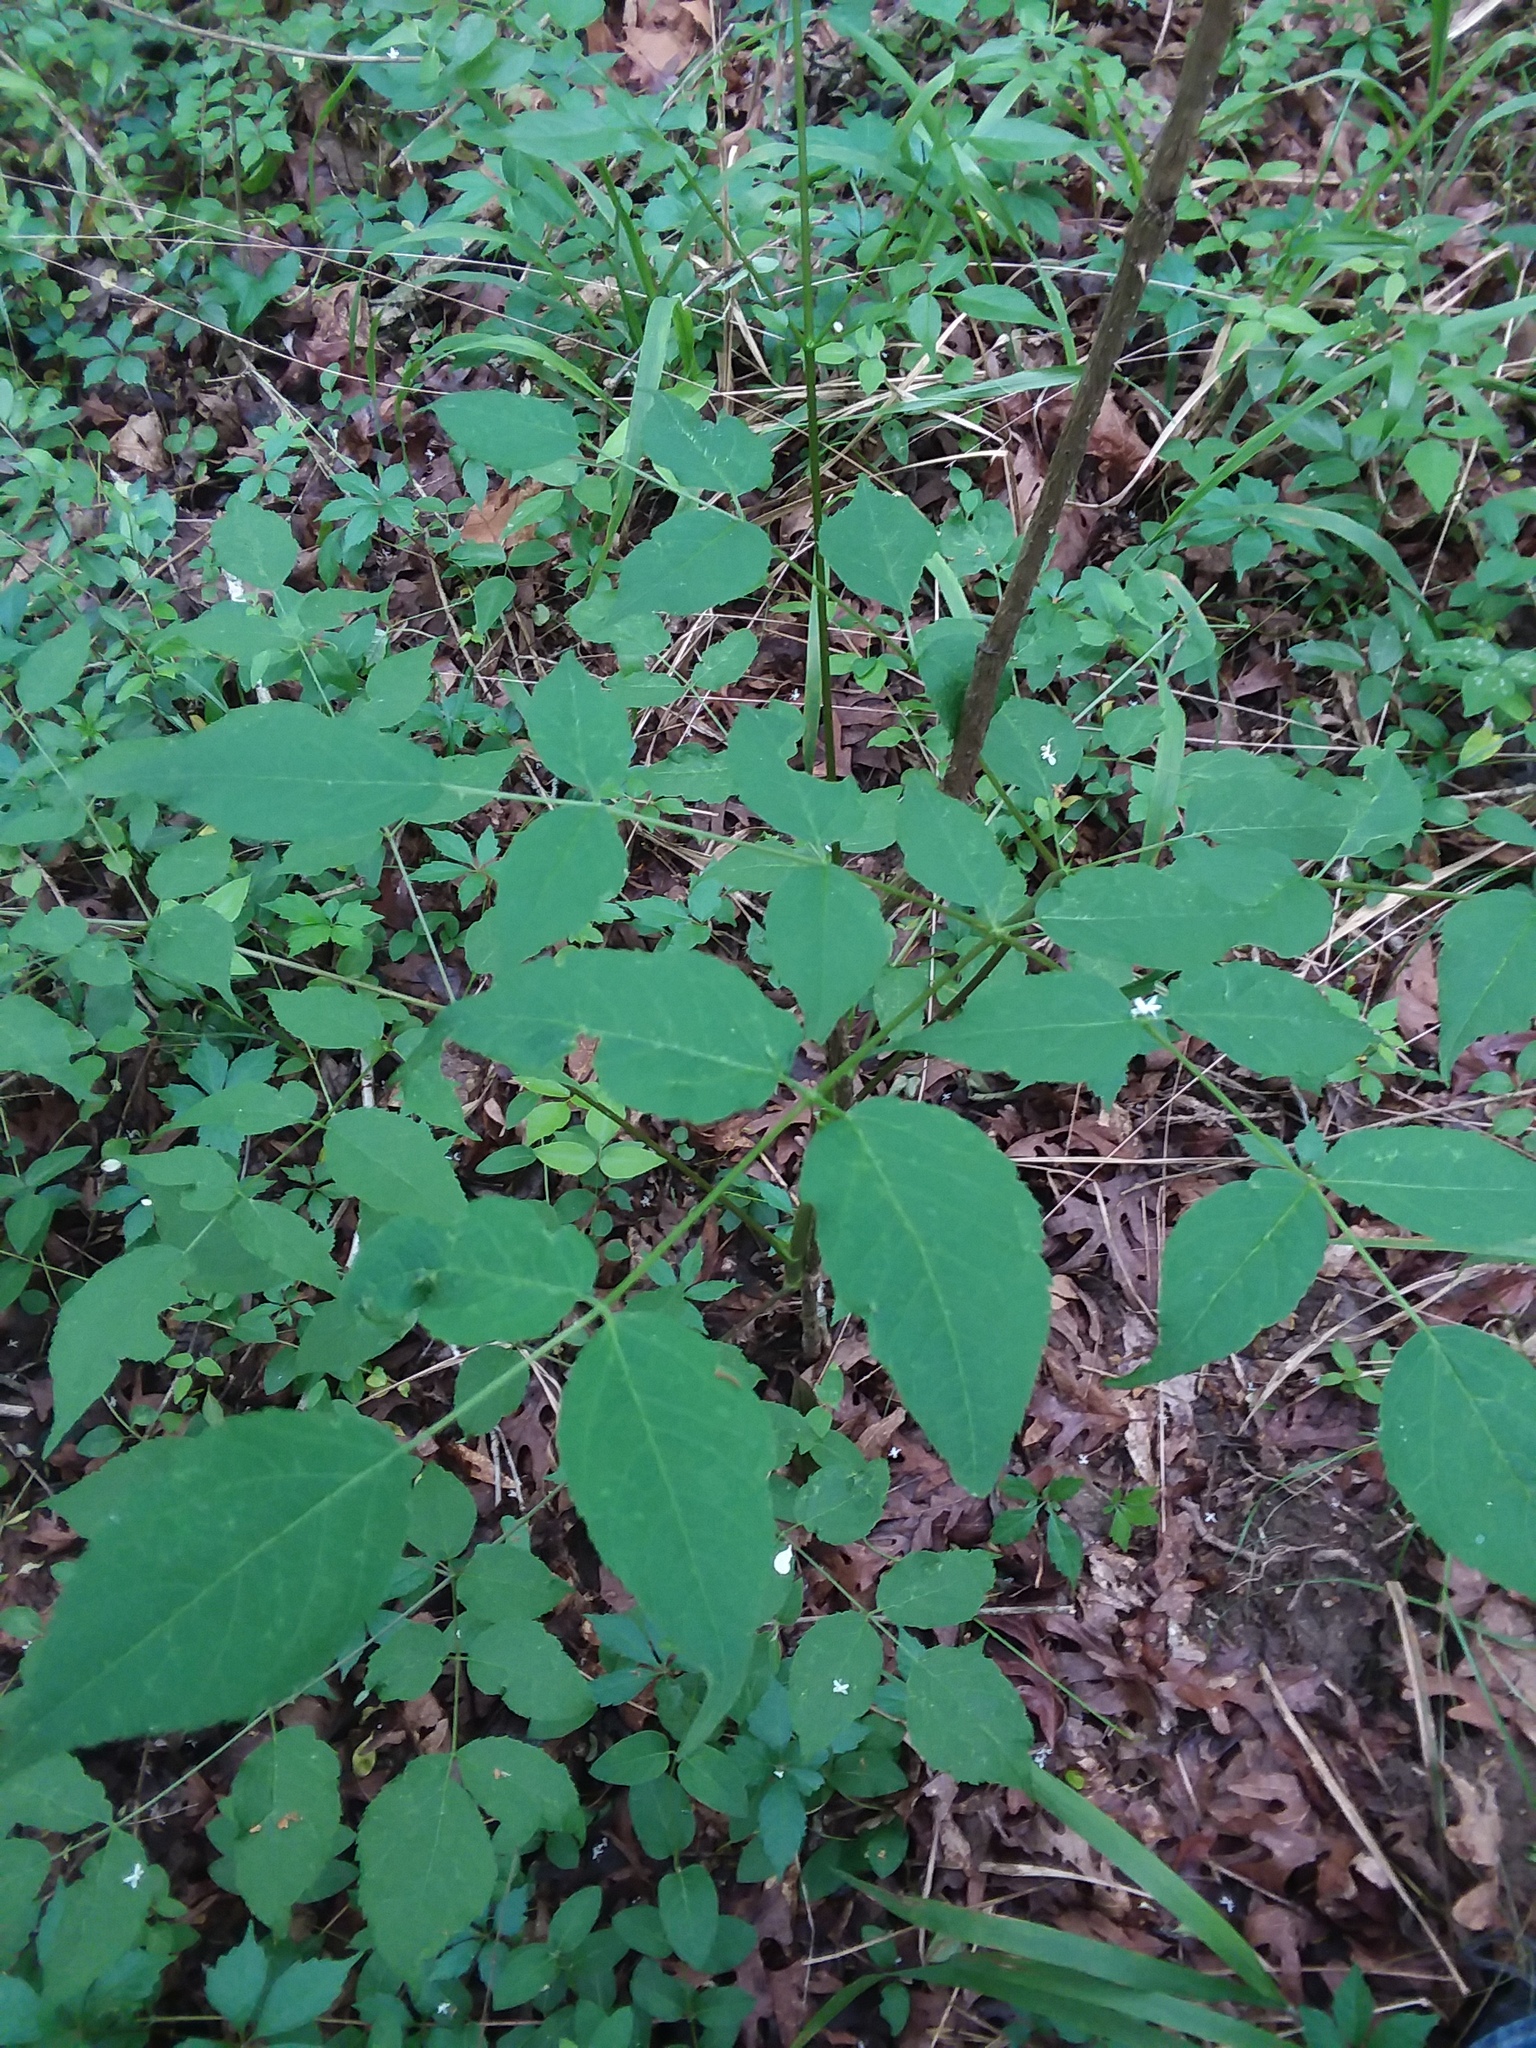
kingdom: Plantae
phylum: Tracheophyta
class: Magnoliopsida
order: Apiales
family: Araliaceae
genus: Aralia
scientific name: Aralia spinosa
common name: Hercules'-club
